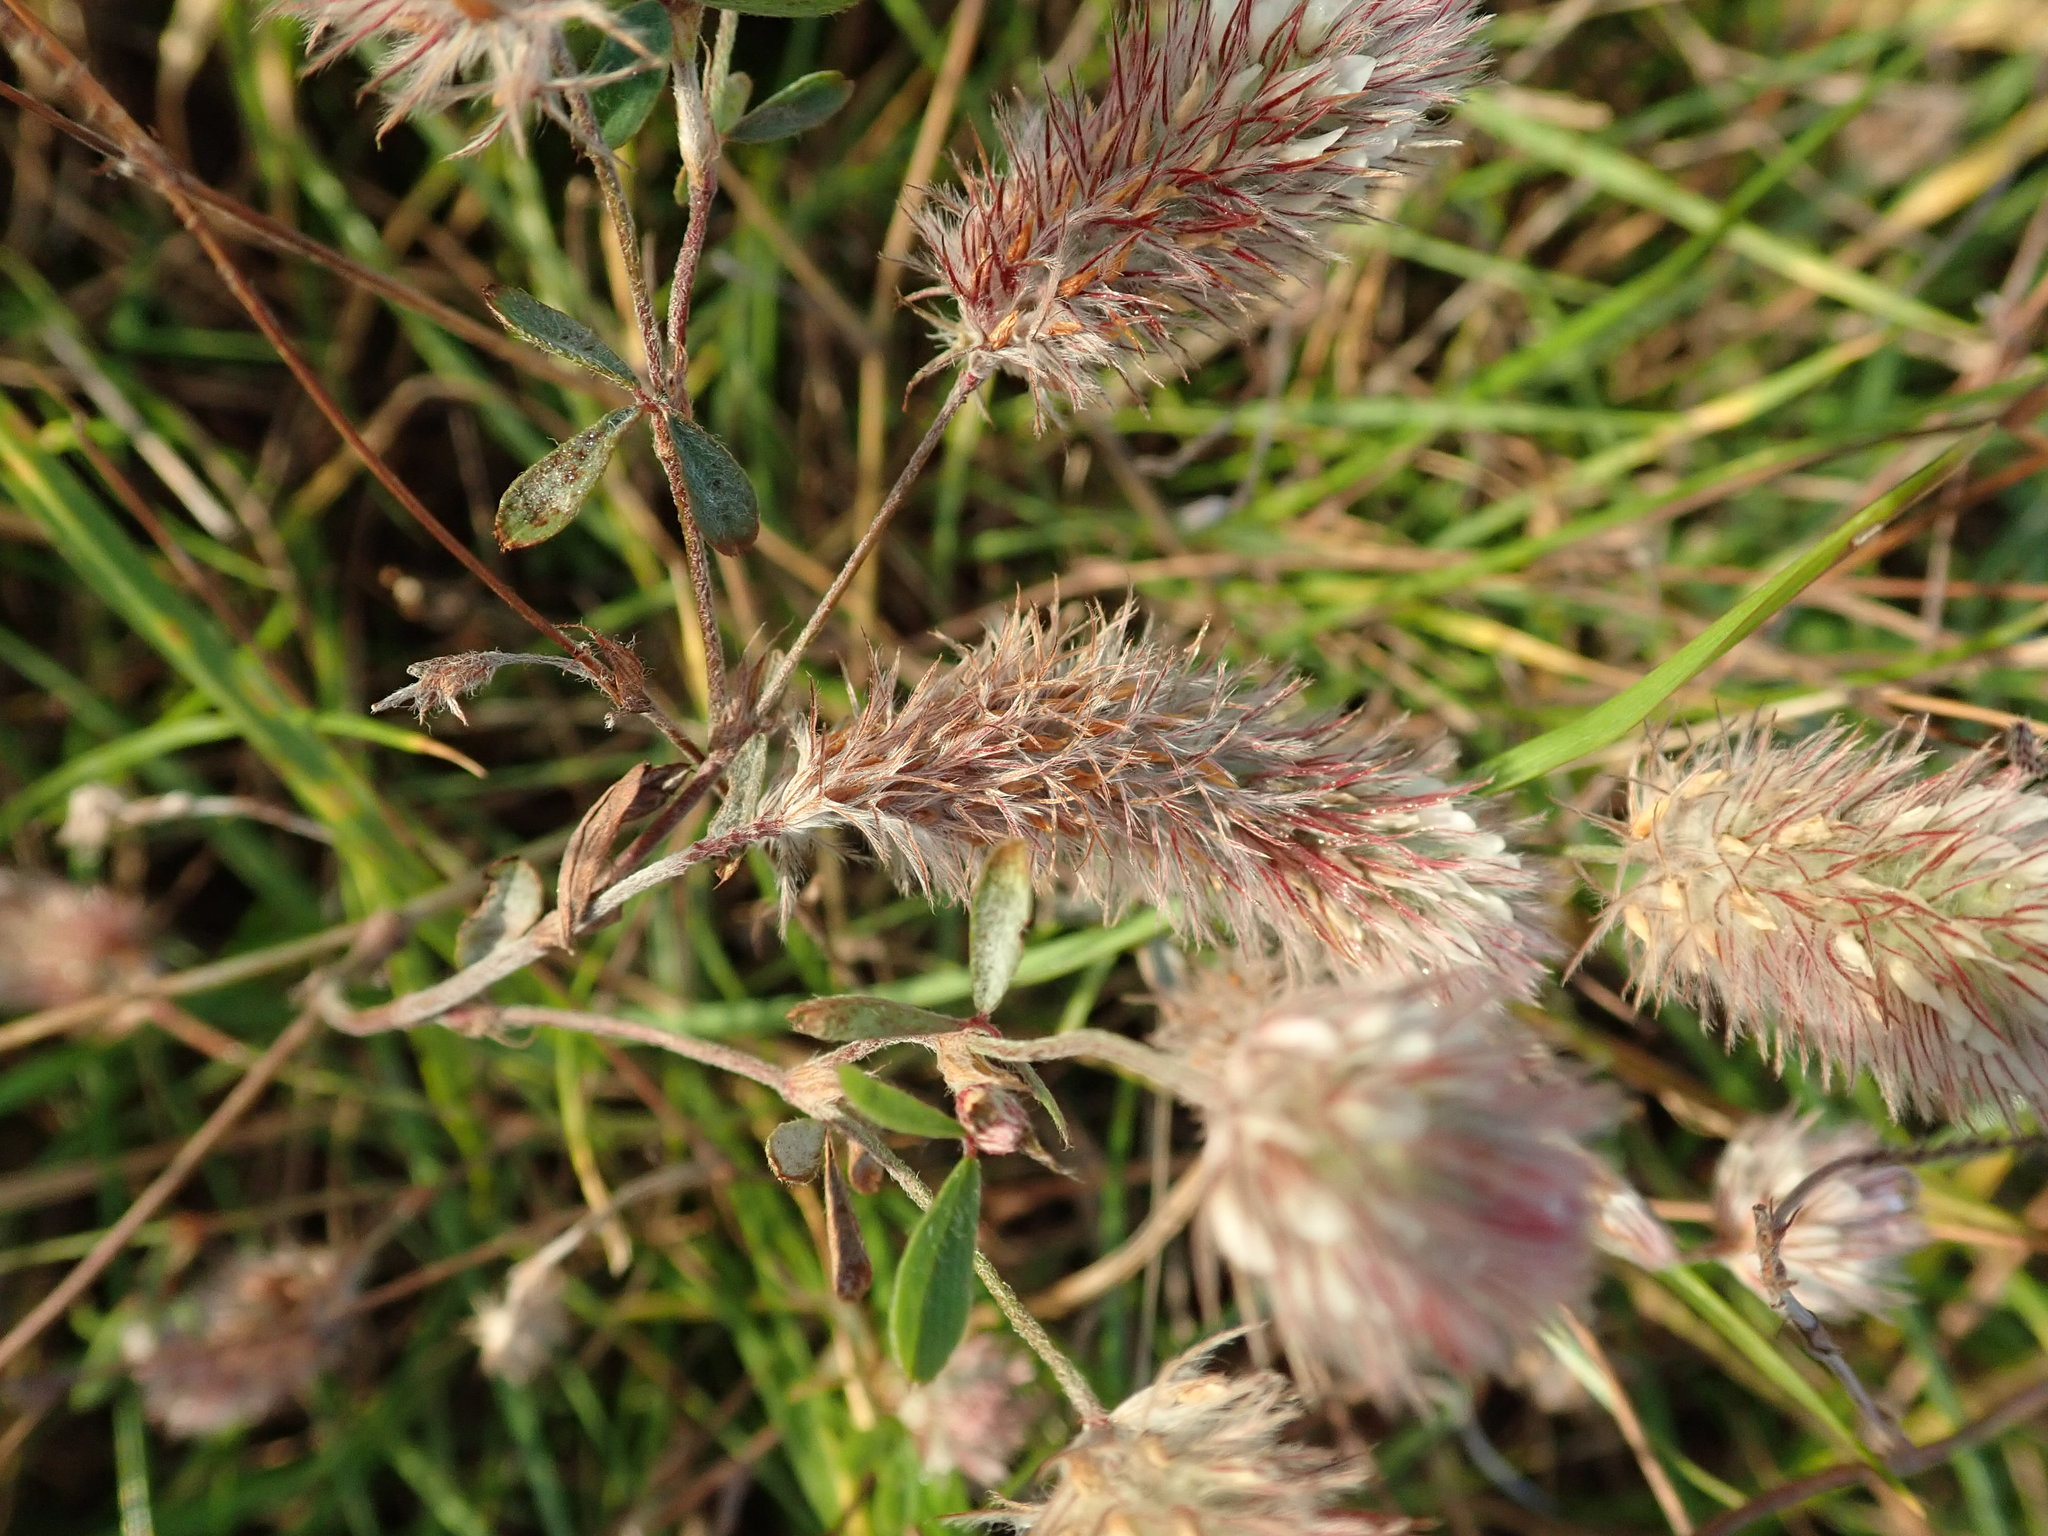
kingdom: Plantae
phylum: Tracheophyta
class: Magnoliopsida
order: Fabales
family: Fabaceae
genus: Trifolium
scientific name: Trifolium arvense
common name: Hare's-foot clover
